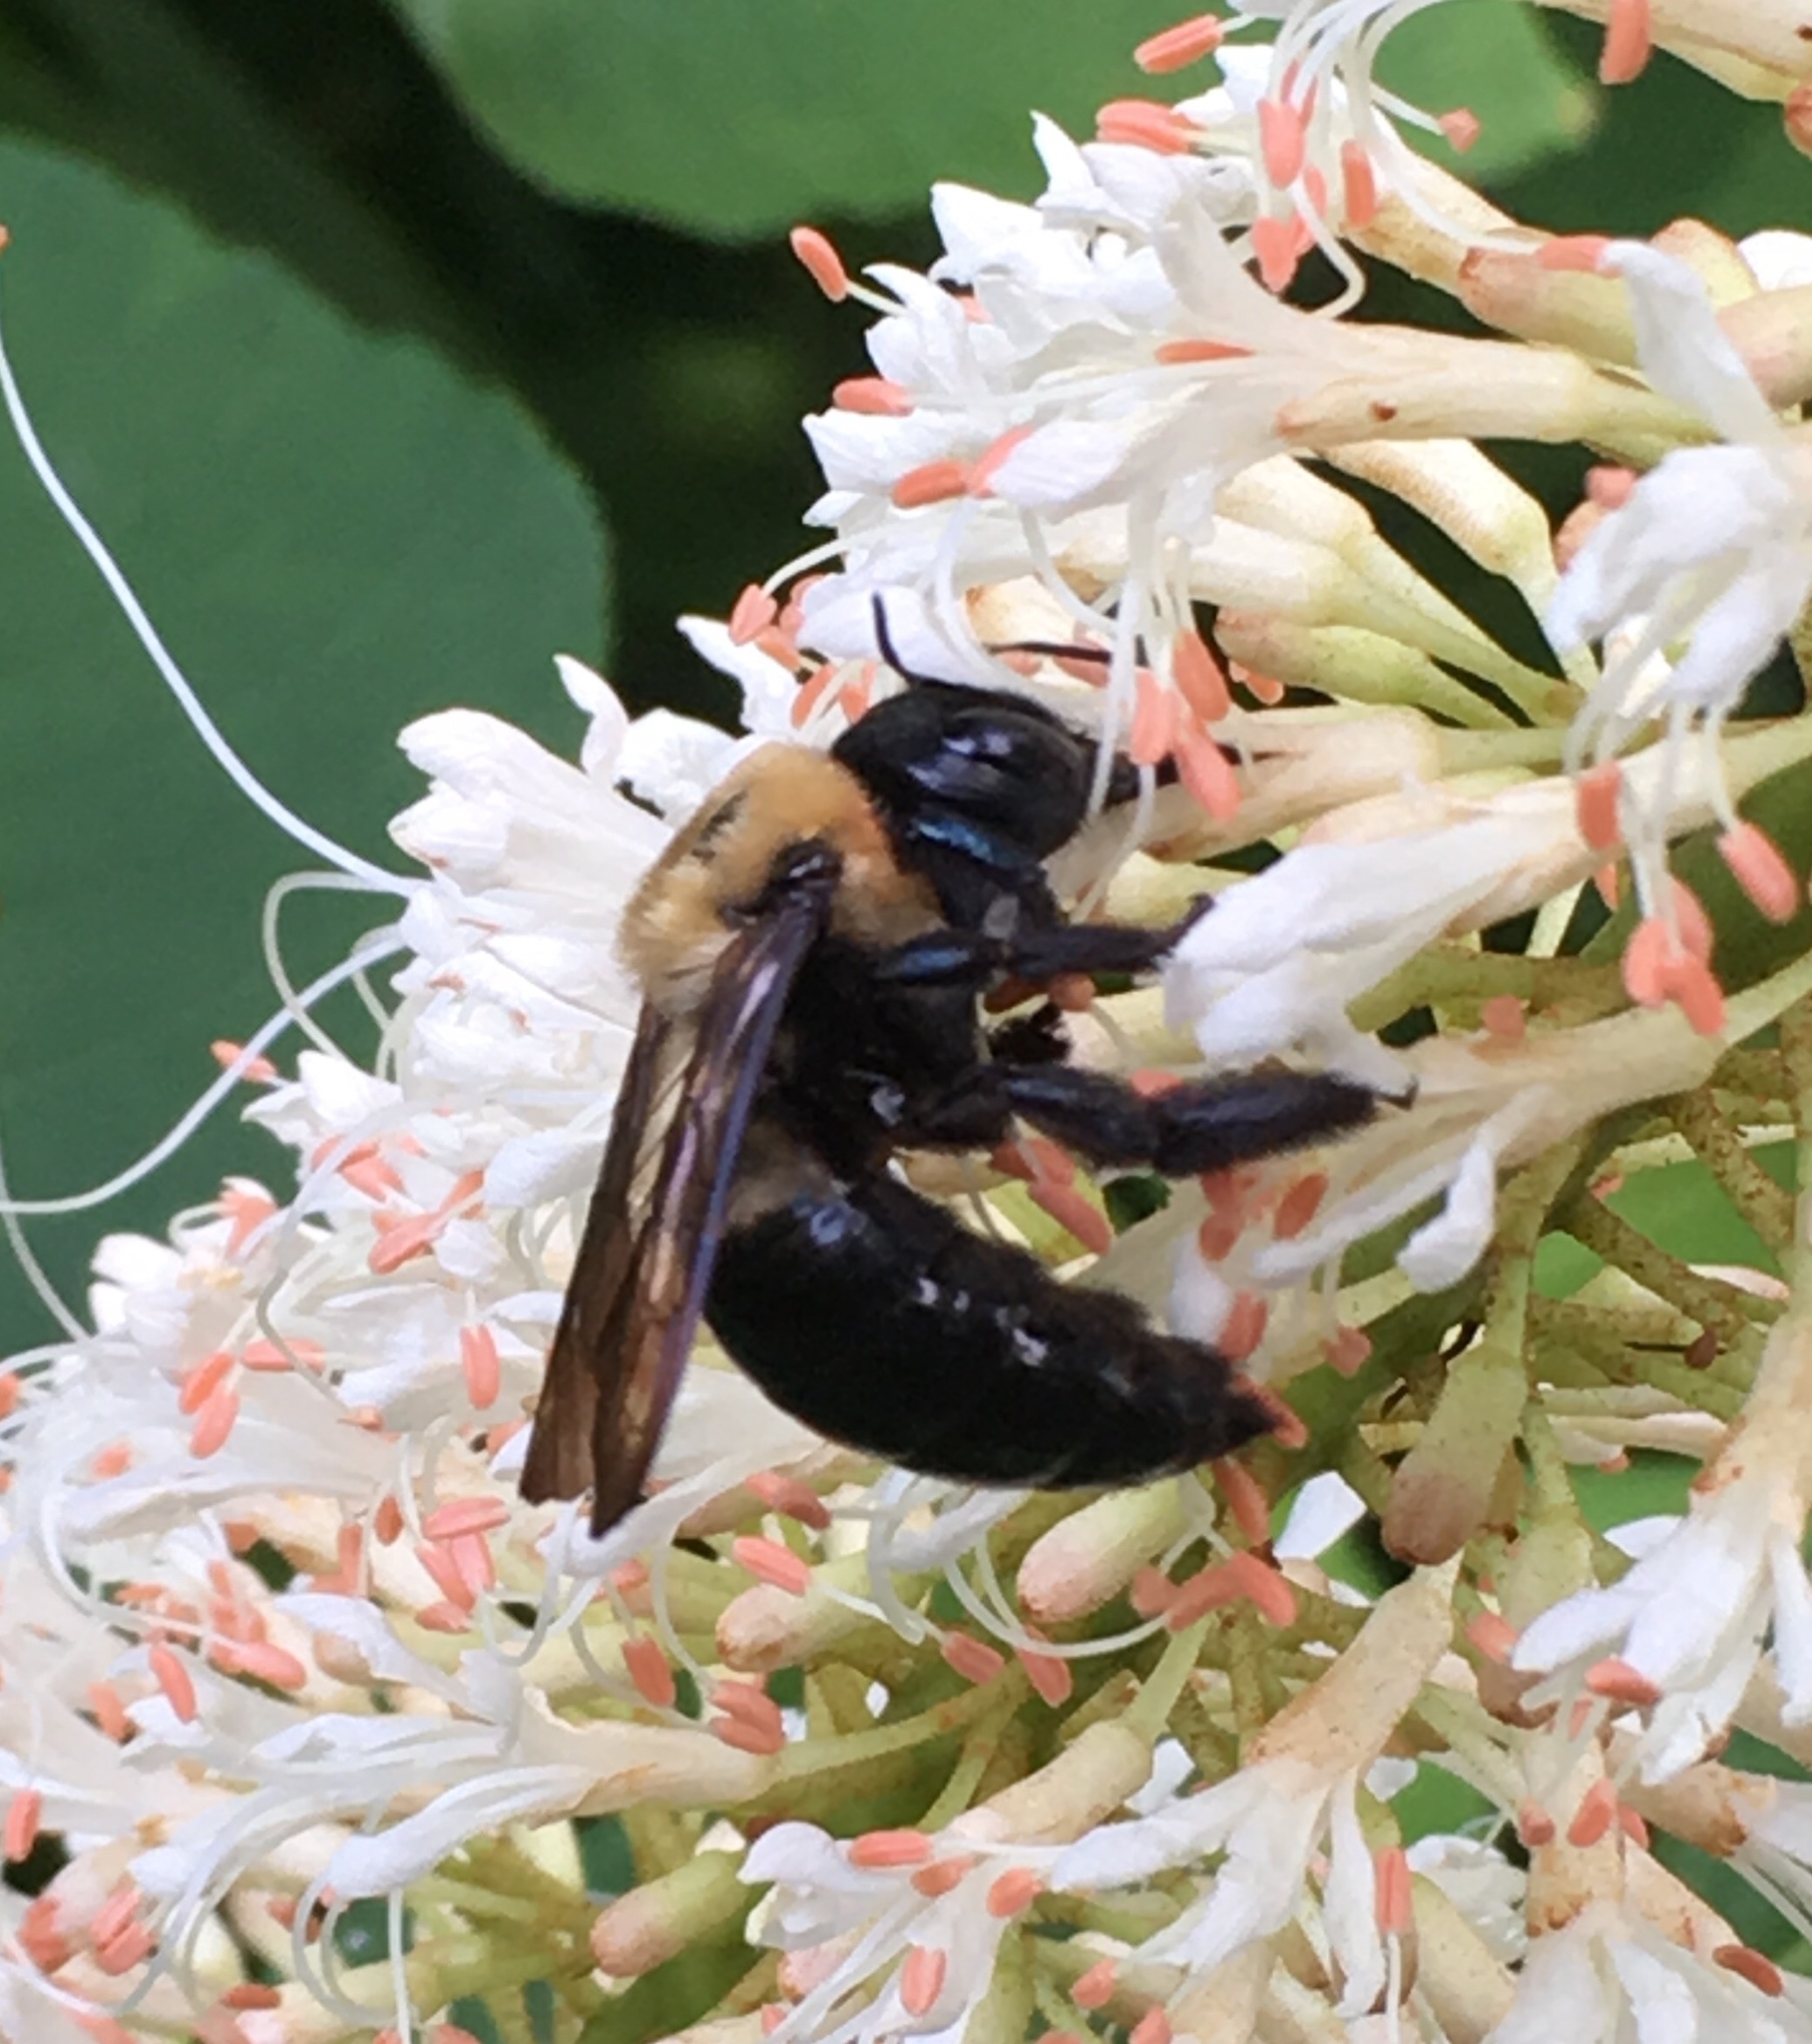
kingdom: Animalia
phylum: Arthropoda
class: Insecta
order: Hymenoptera
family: Apidae
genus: Xylocopa
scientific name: Xylocopa virginica
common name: Carpenter bee
